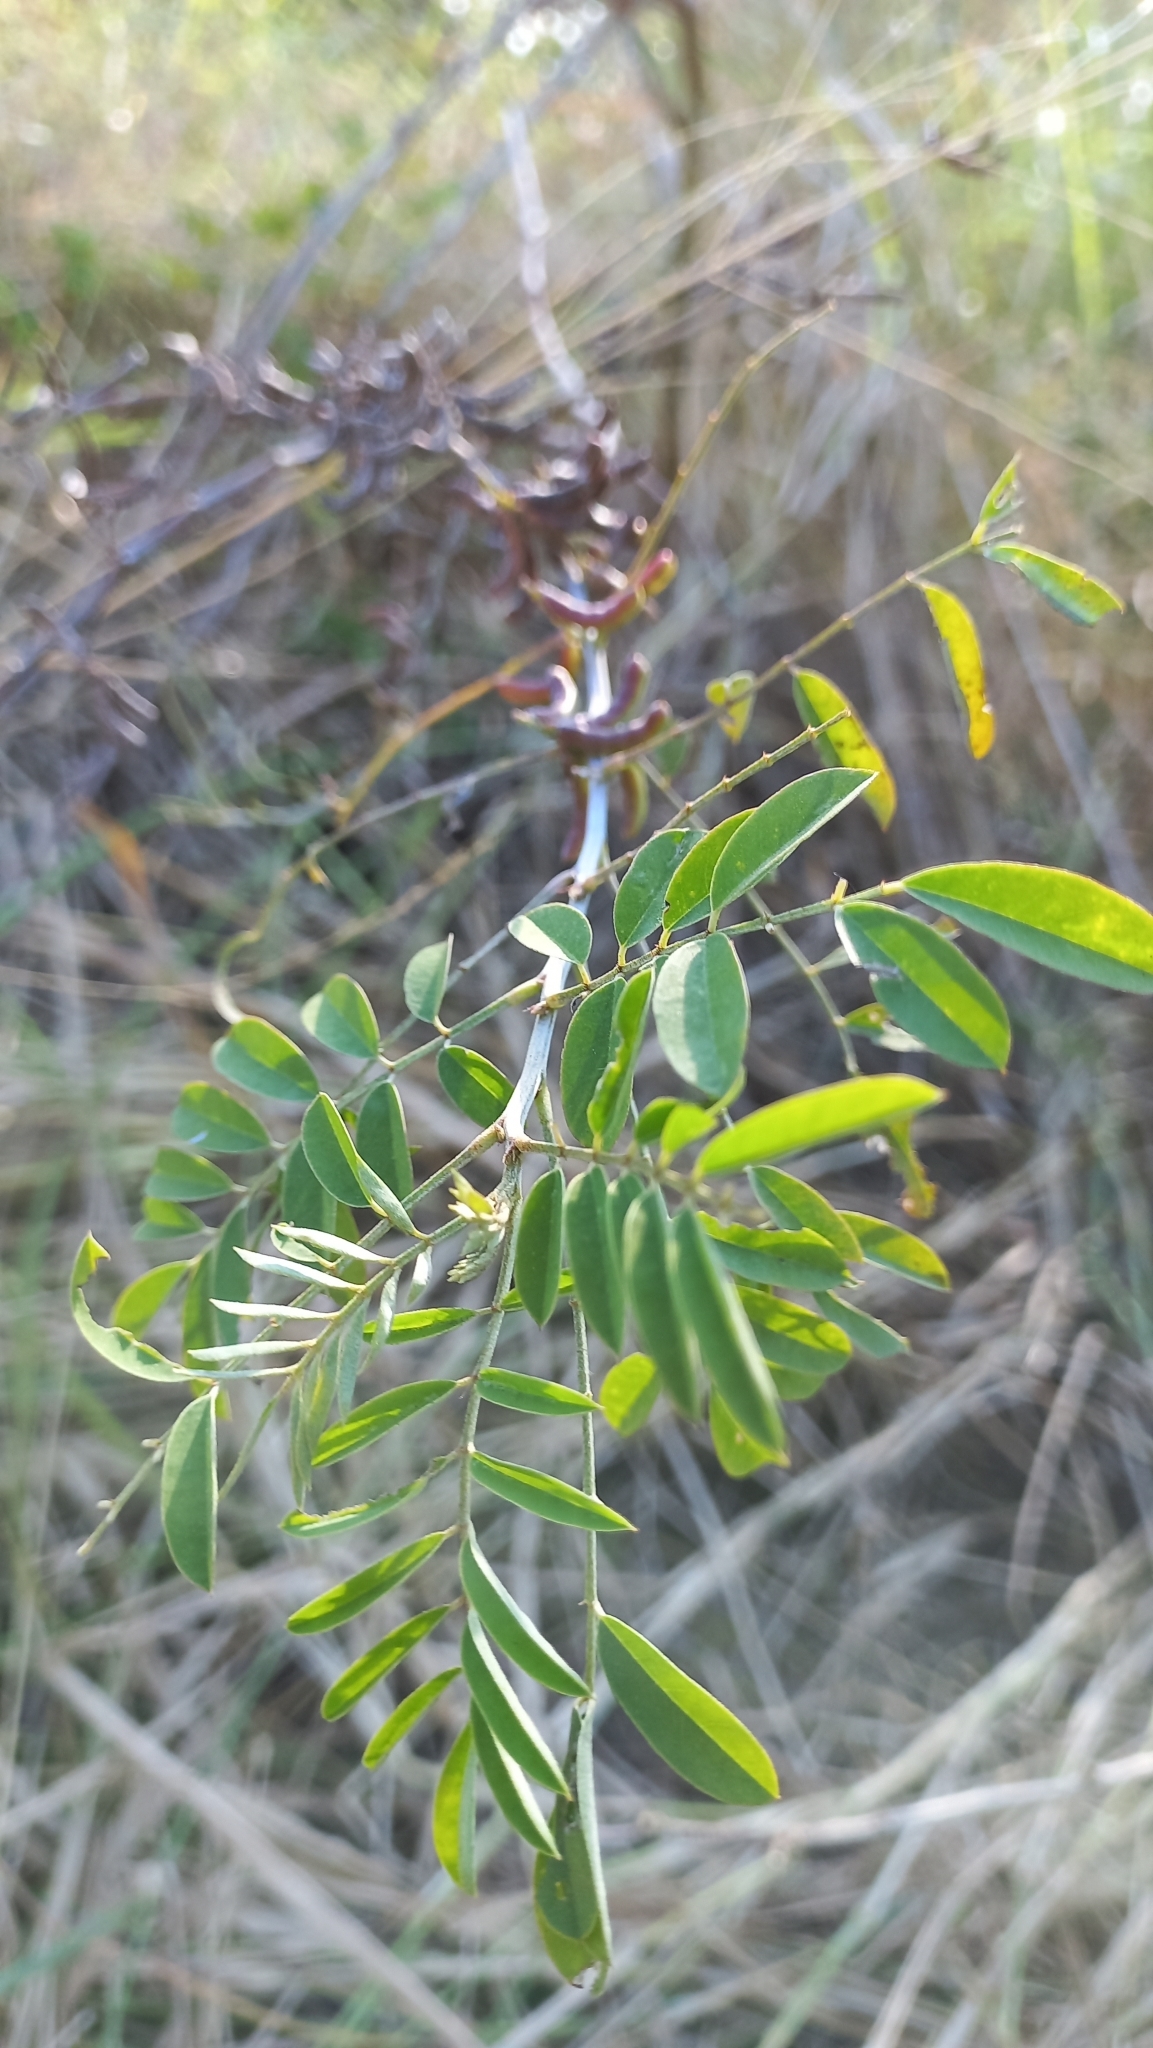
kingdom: Plantae
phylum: Tracheophyta
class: Magnoliopsida
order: Fabales
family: Fabaceae
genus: Indigofera
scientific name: Indigofera suffruticosa
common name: Anil de pasto
